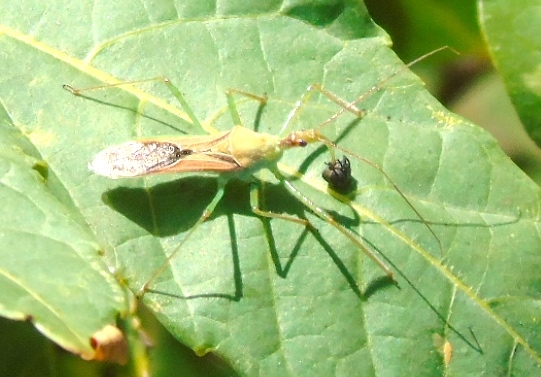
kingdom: Animalia
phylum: Arthropoda
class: Insecta
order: Hemiptera
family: Reduviidae
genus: Zelus
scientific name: Zelus
